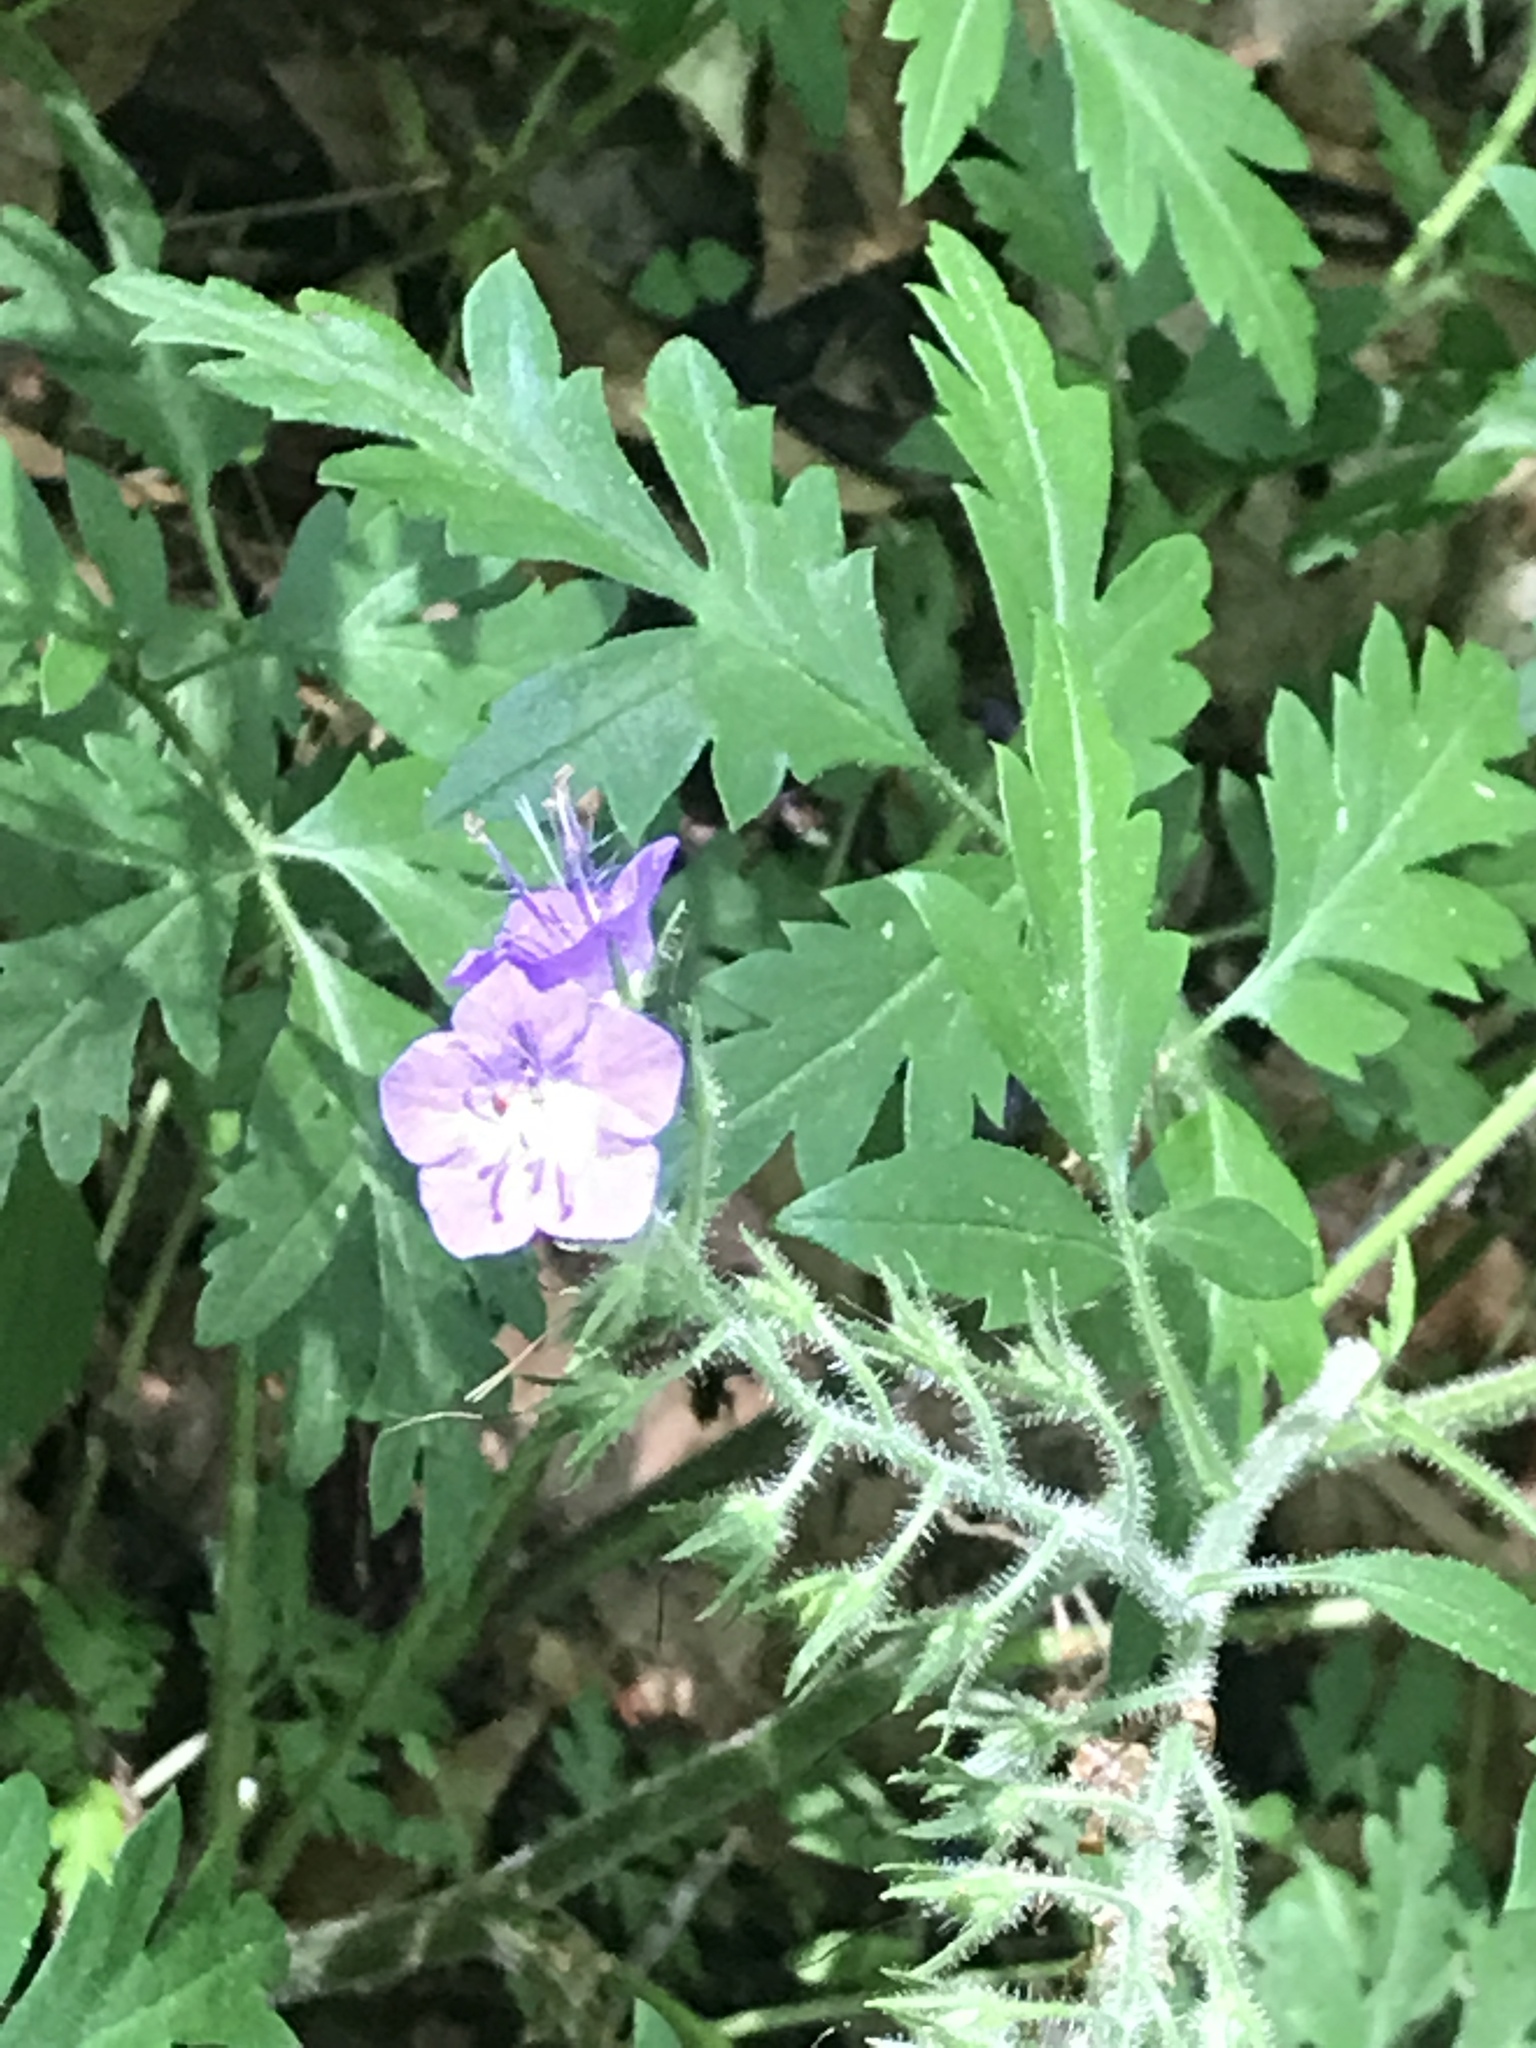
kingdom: Plantae
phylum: Tracheophyta
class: Magnoliopsida
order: Boraginales
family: Hydrophyllaceae
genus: Phacelia
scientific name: Phacelia bipinnatifida
